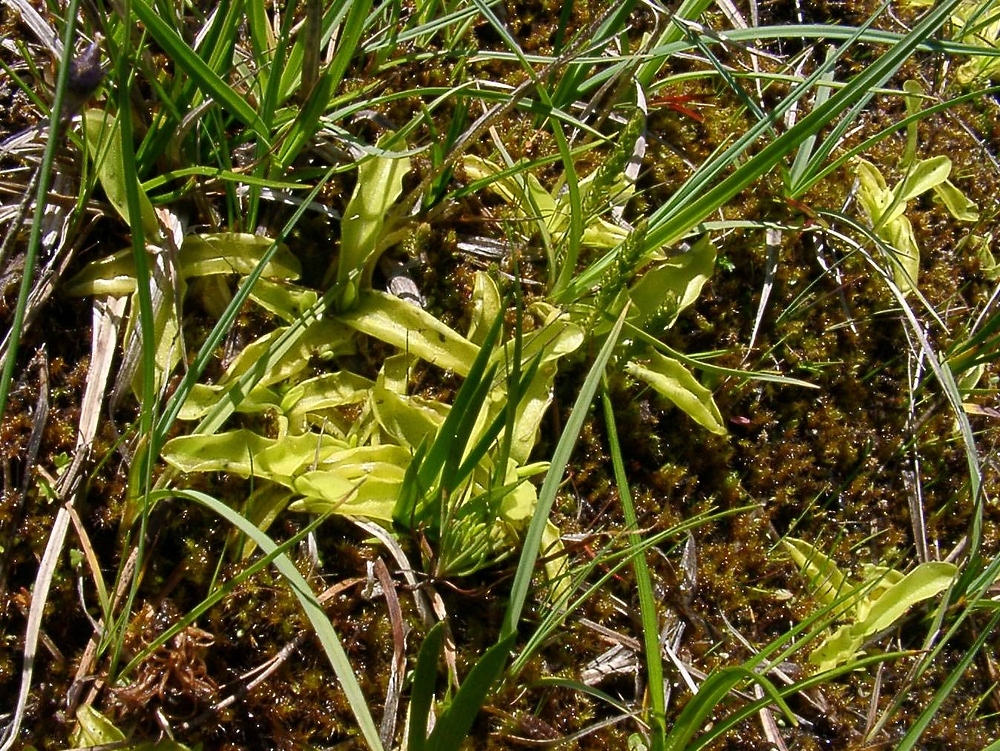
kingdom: Plantae
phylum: Tracheophyta
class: Magnoliopsida
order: Lamiales
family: Lentibulariaceae
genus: Pinguicula
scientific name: Pinguicula vulgaris
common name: Common butterwort
